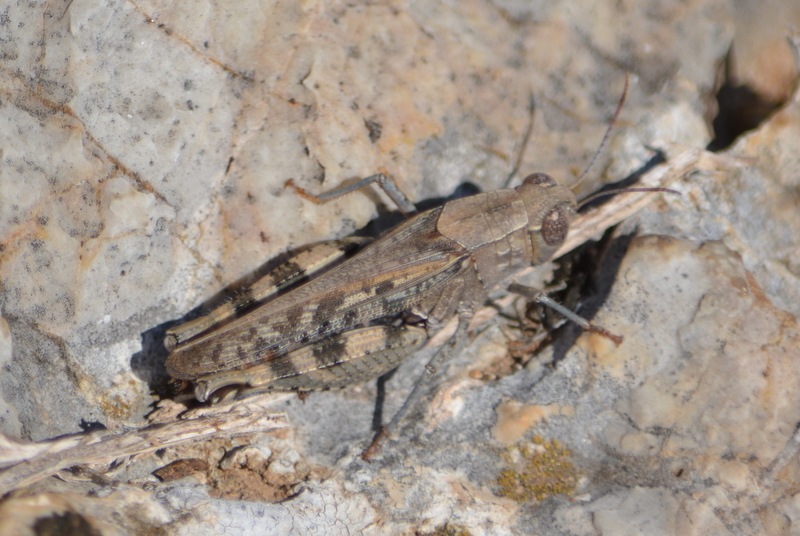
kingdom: Animalia
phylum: Arthropoda
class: Insecta
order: Orthoptera
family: Acrididae
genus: Calliptamus
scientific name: Calliptamus barbarus
